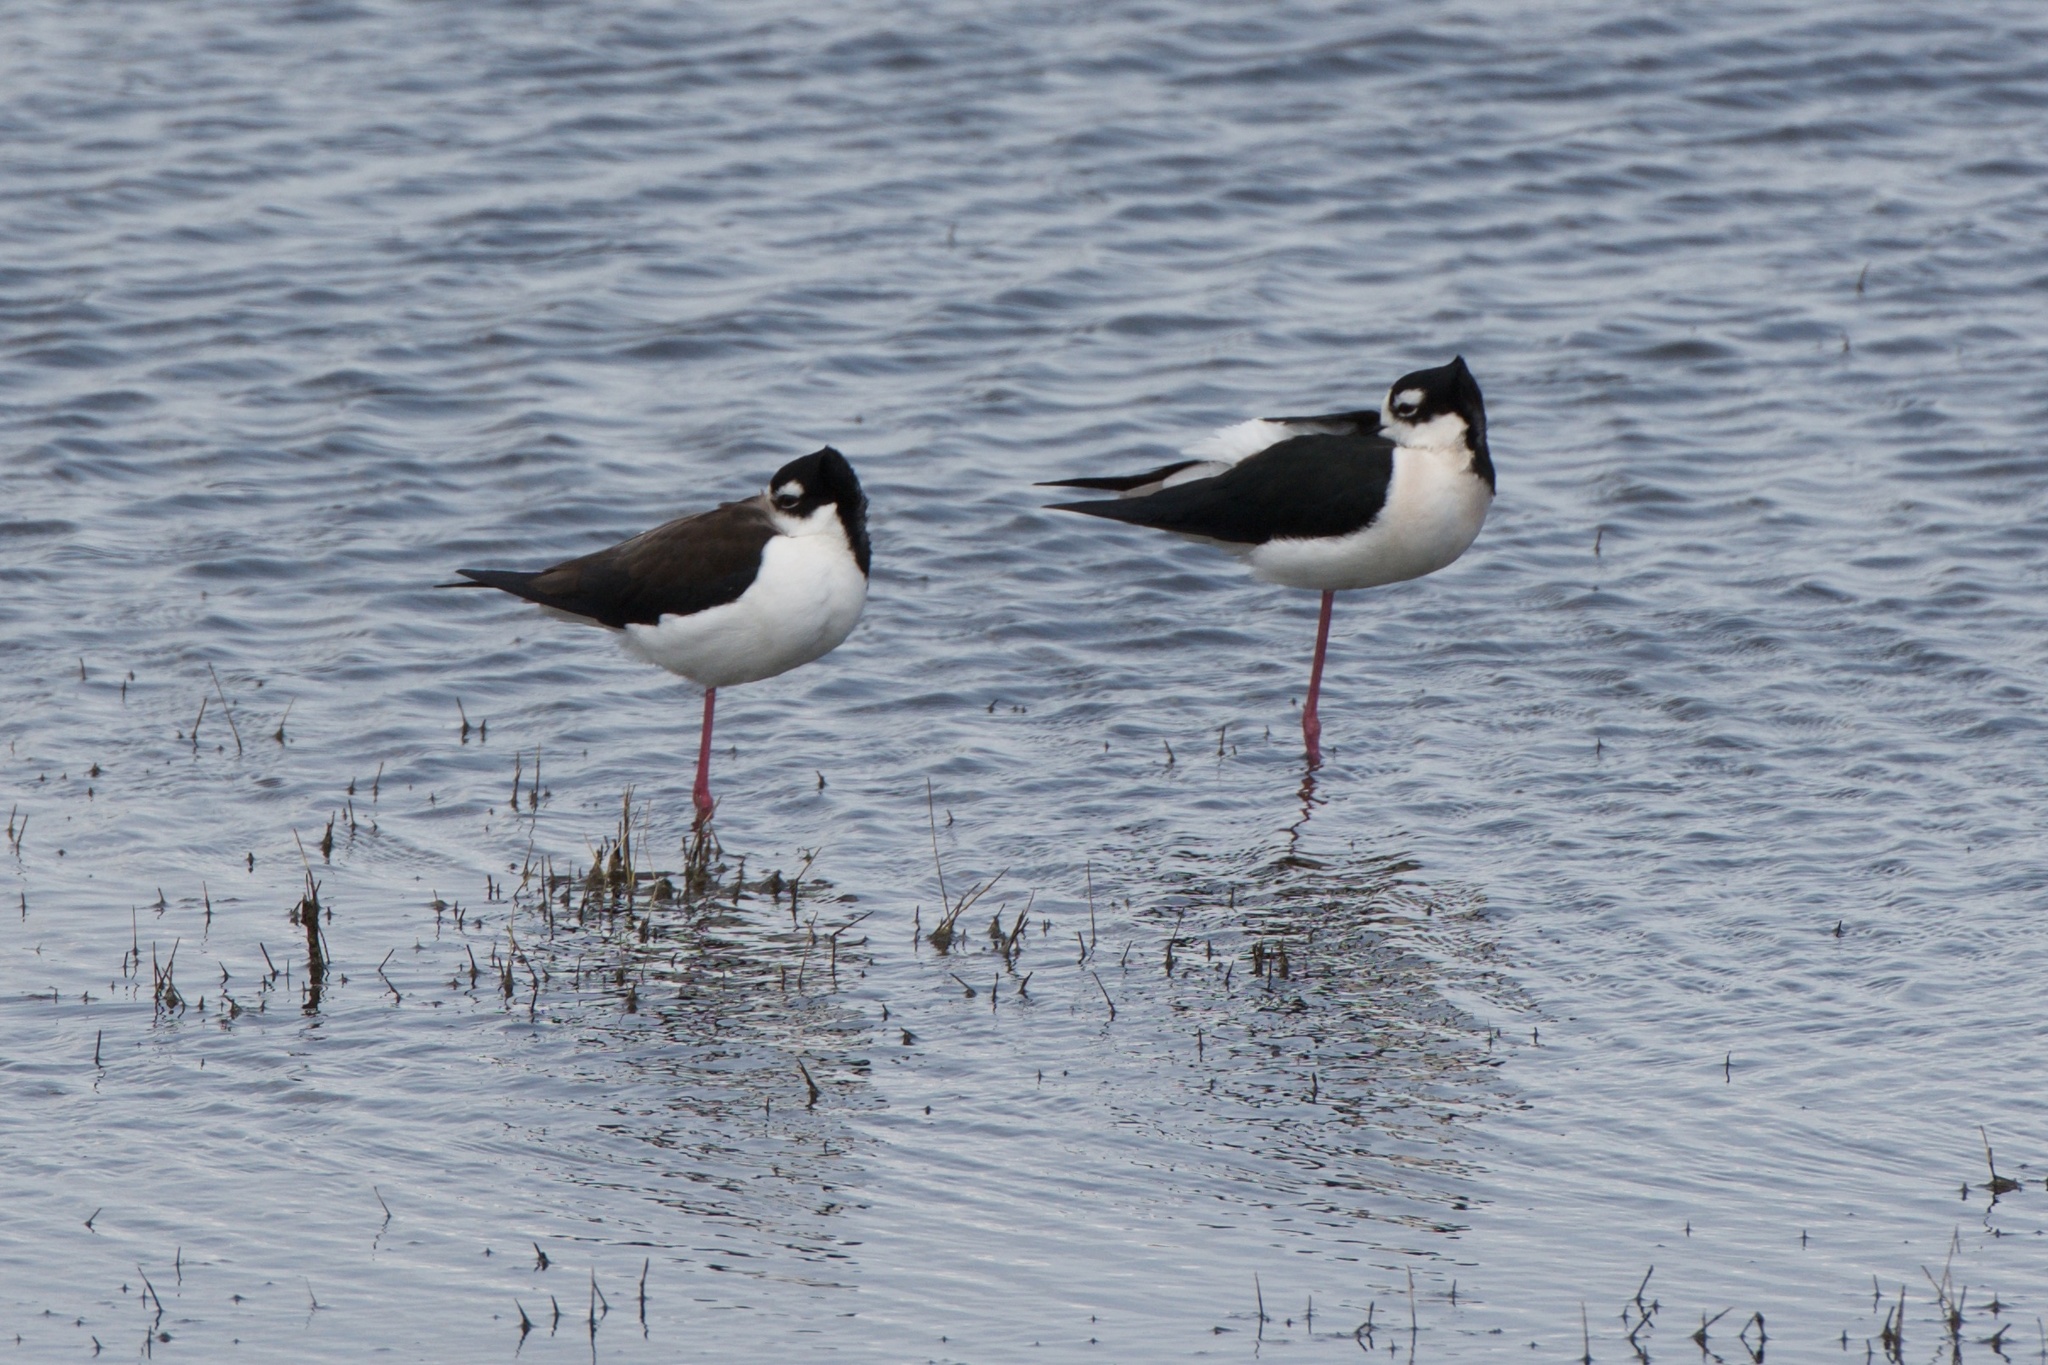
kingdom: Animalia
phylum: Chordata
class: Aves
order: Charadriiformes
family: Recurvirostridae
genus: Himantopus
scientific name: Himantopus mexicanus
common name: Black-necked stilt
